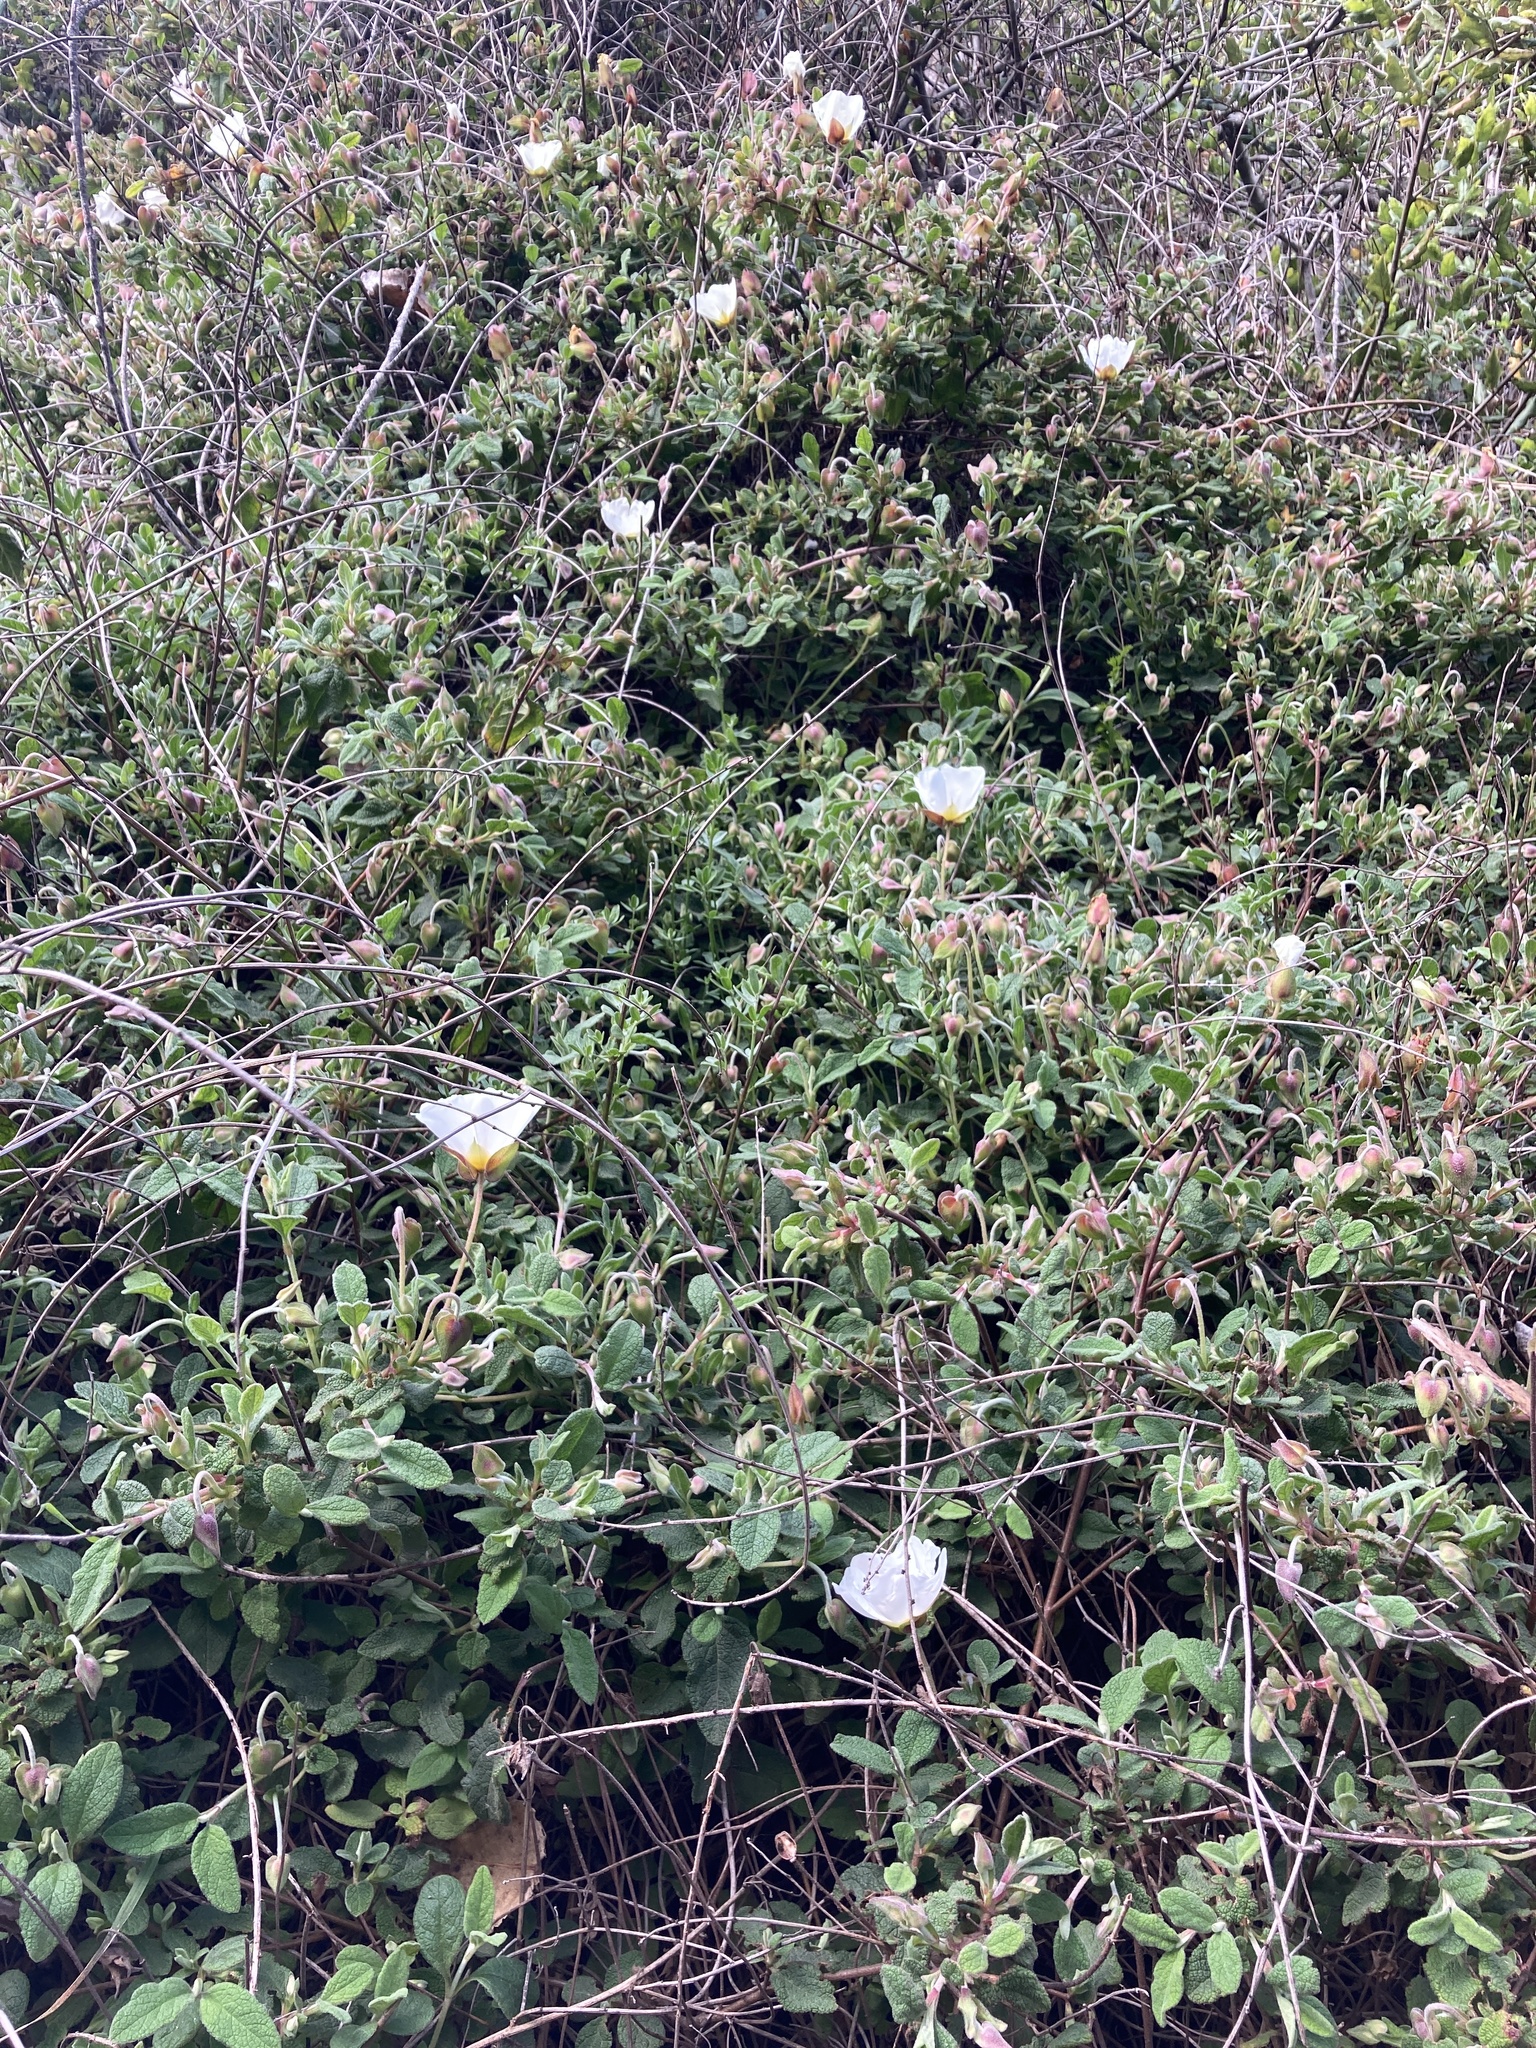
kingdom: Plantae
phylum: Tracheophyta
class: Magnoliopsida
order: Malvales
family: Cistaceae
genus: Cistus
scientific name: Cistus salviifolius
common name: Salvia cistus
